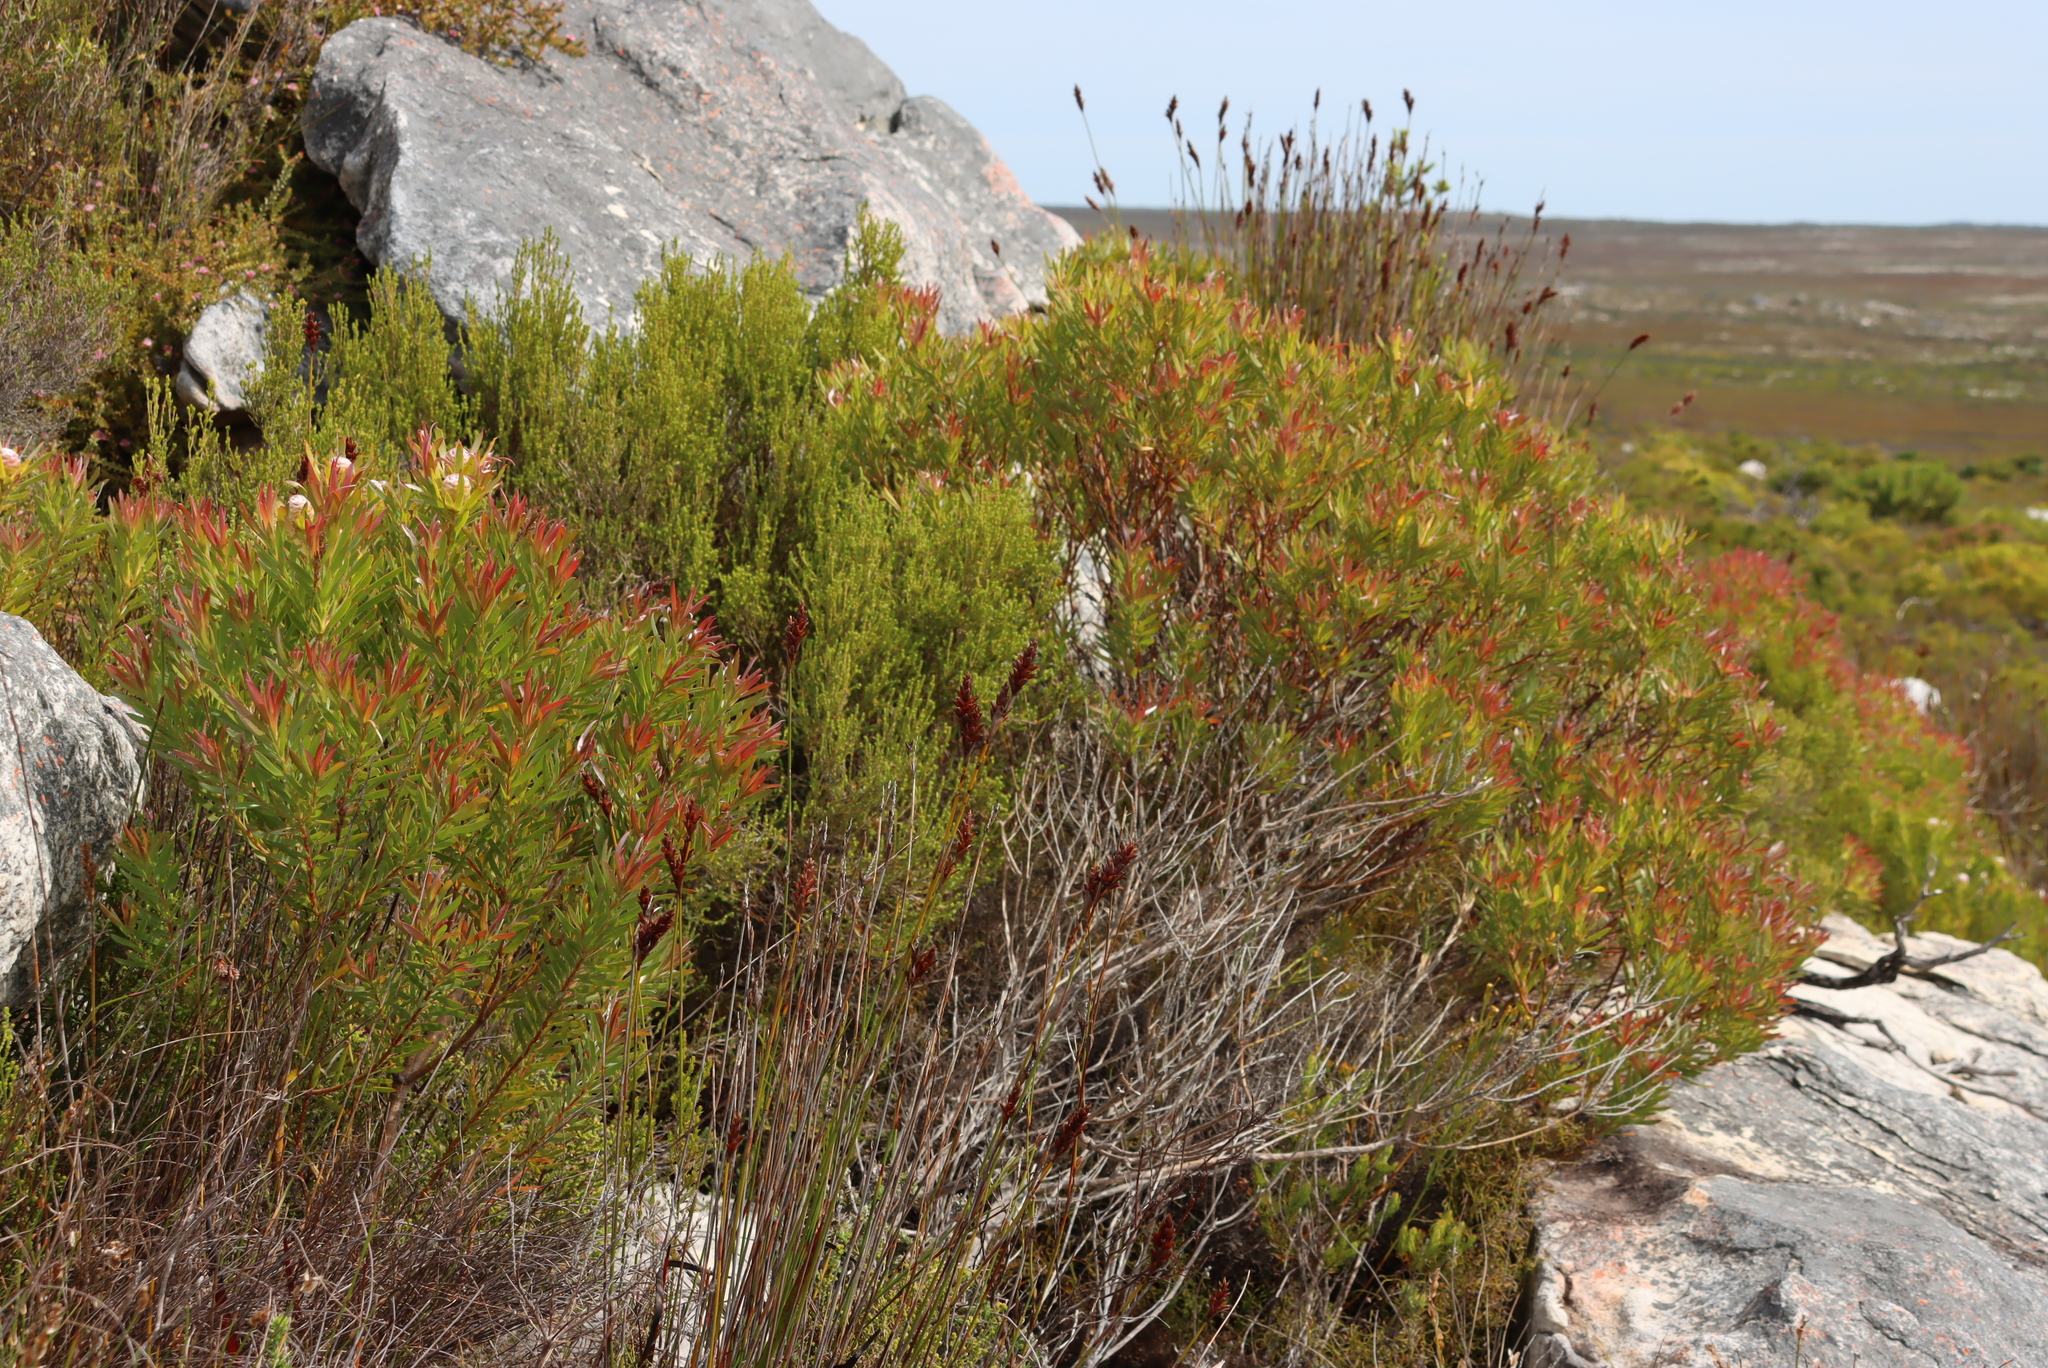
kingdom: Plantae
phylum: Tracheophyta
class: Magnoliopsida
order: Proteales
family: Proteaceae
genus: Leucadendron
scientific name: Leucadendron xanthoconus
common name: Sickle-leaf conebush
